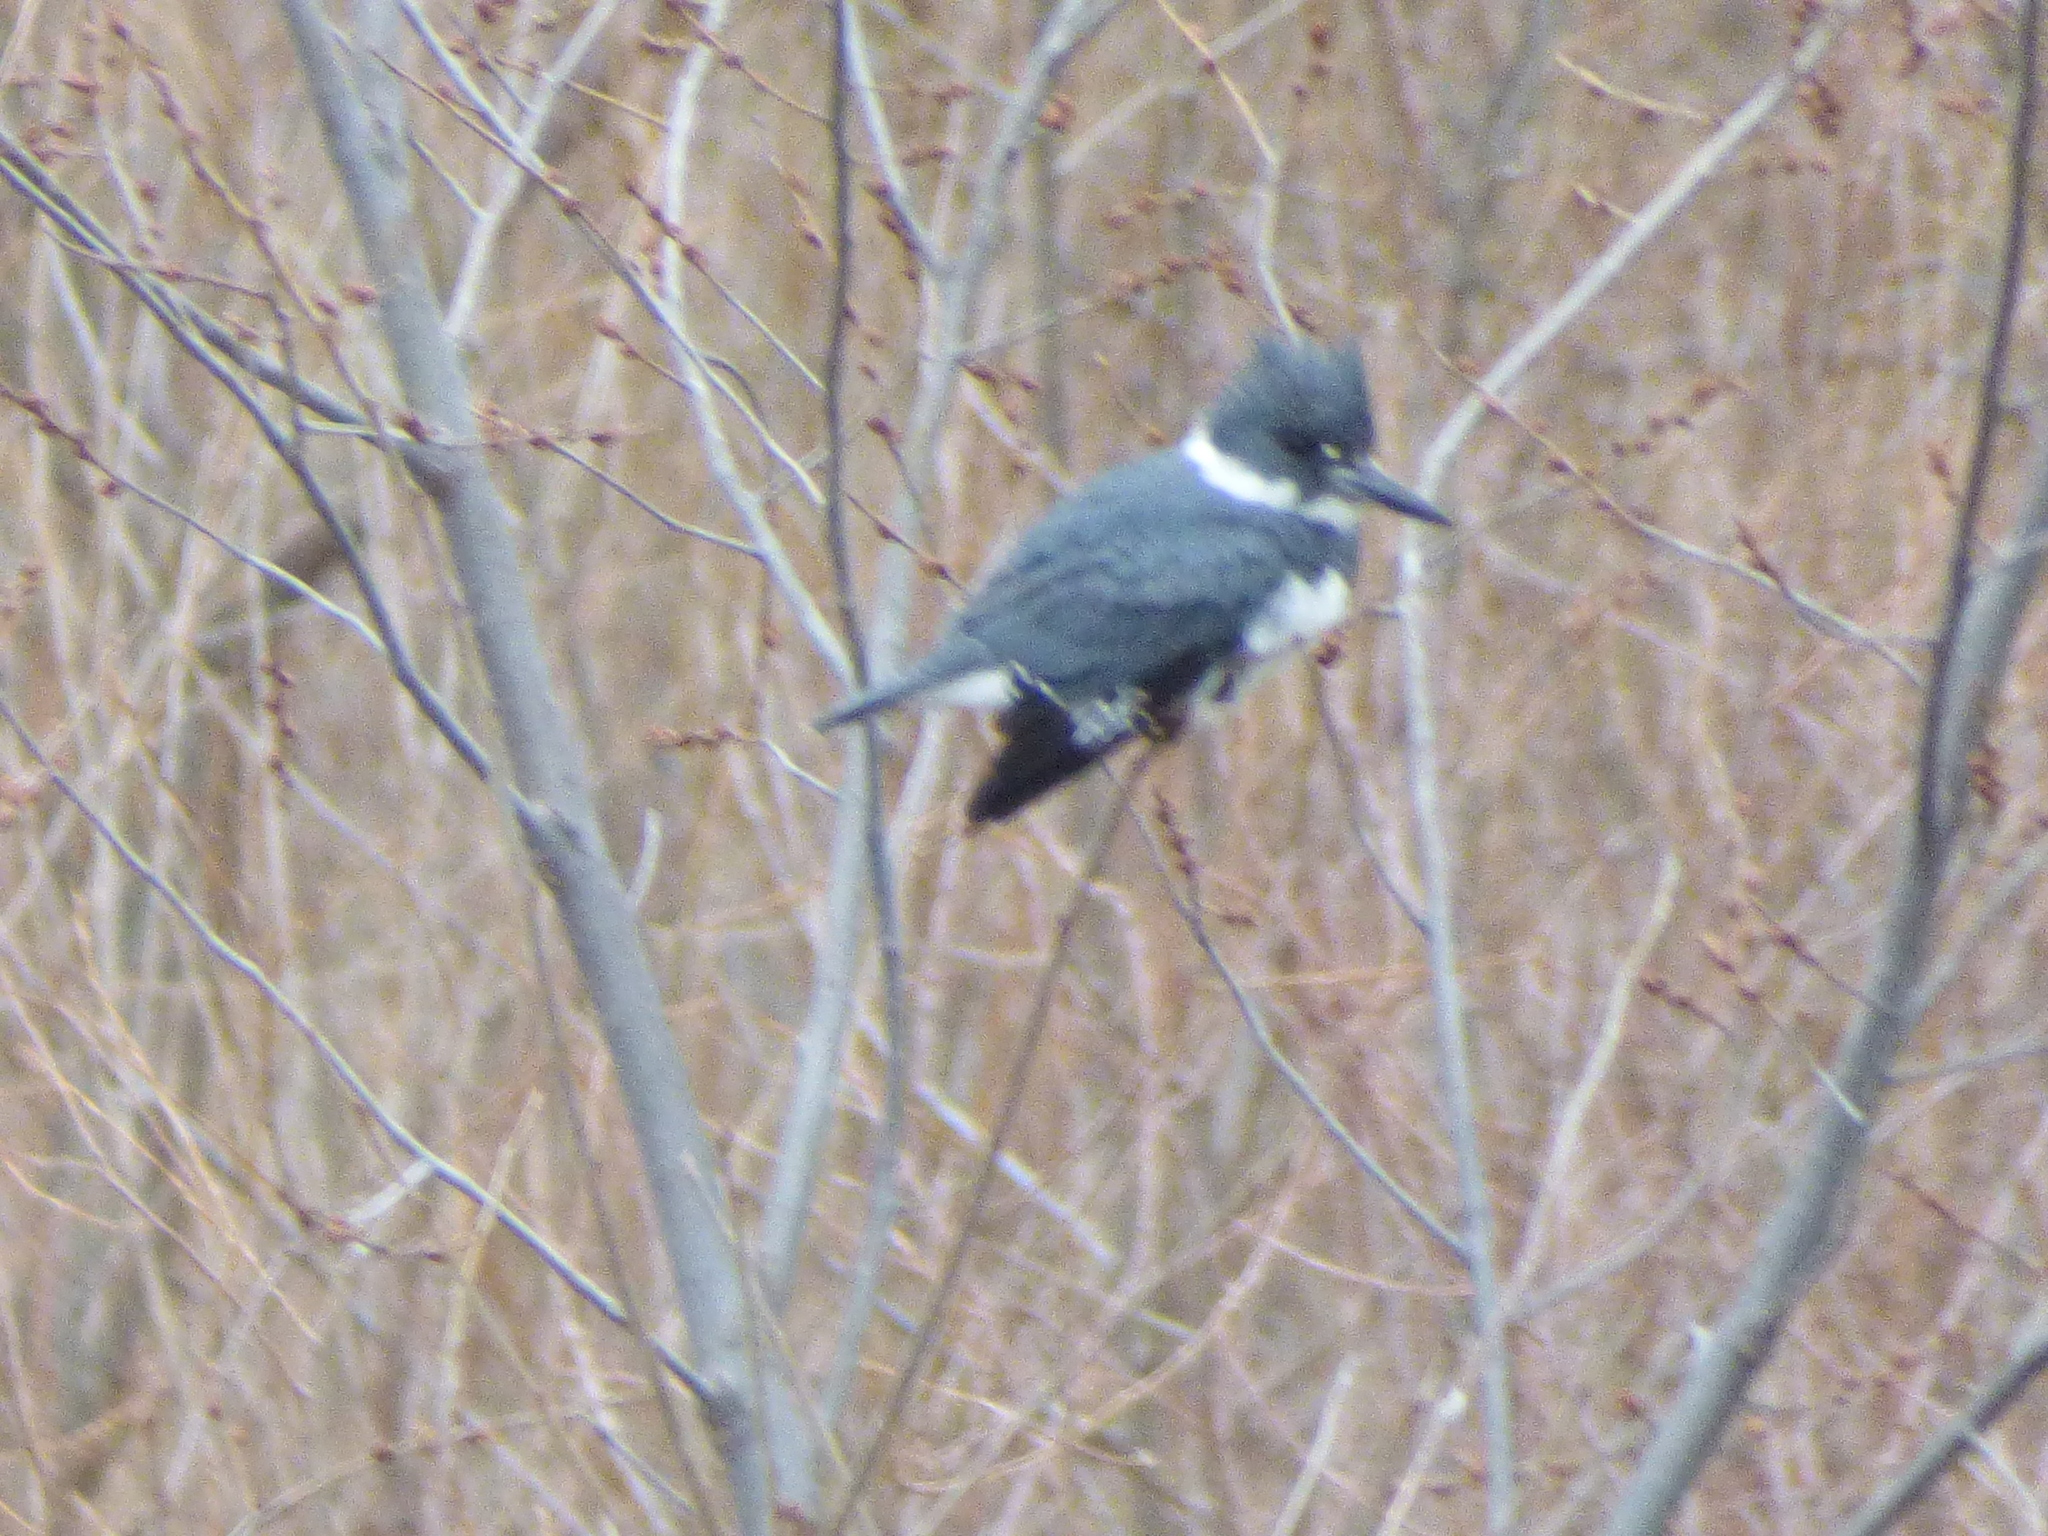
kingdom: Animalia
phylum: Chordata
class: Aves
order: Coraciiformes
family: Alcedinidae
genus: Megaceryle
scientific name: Megaceryle alcyon
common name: Belted kingfisher
